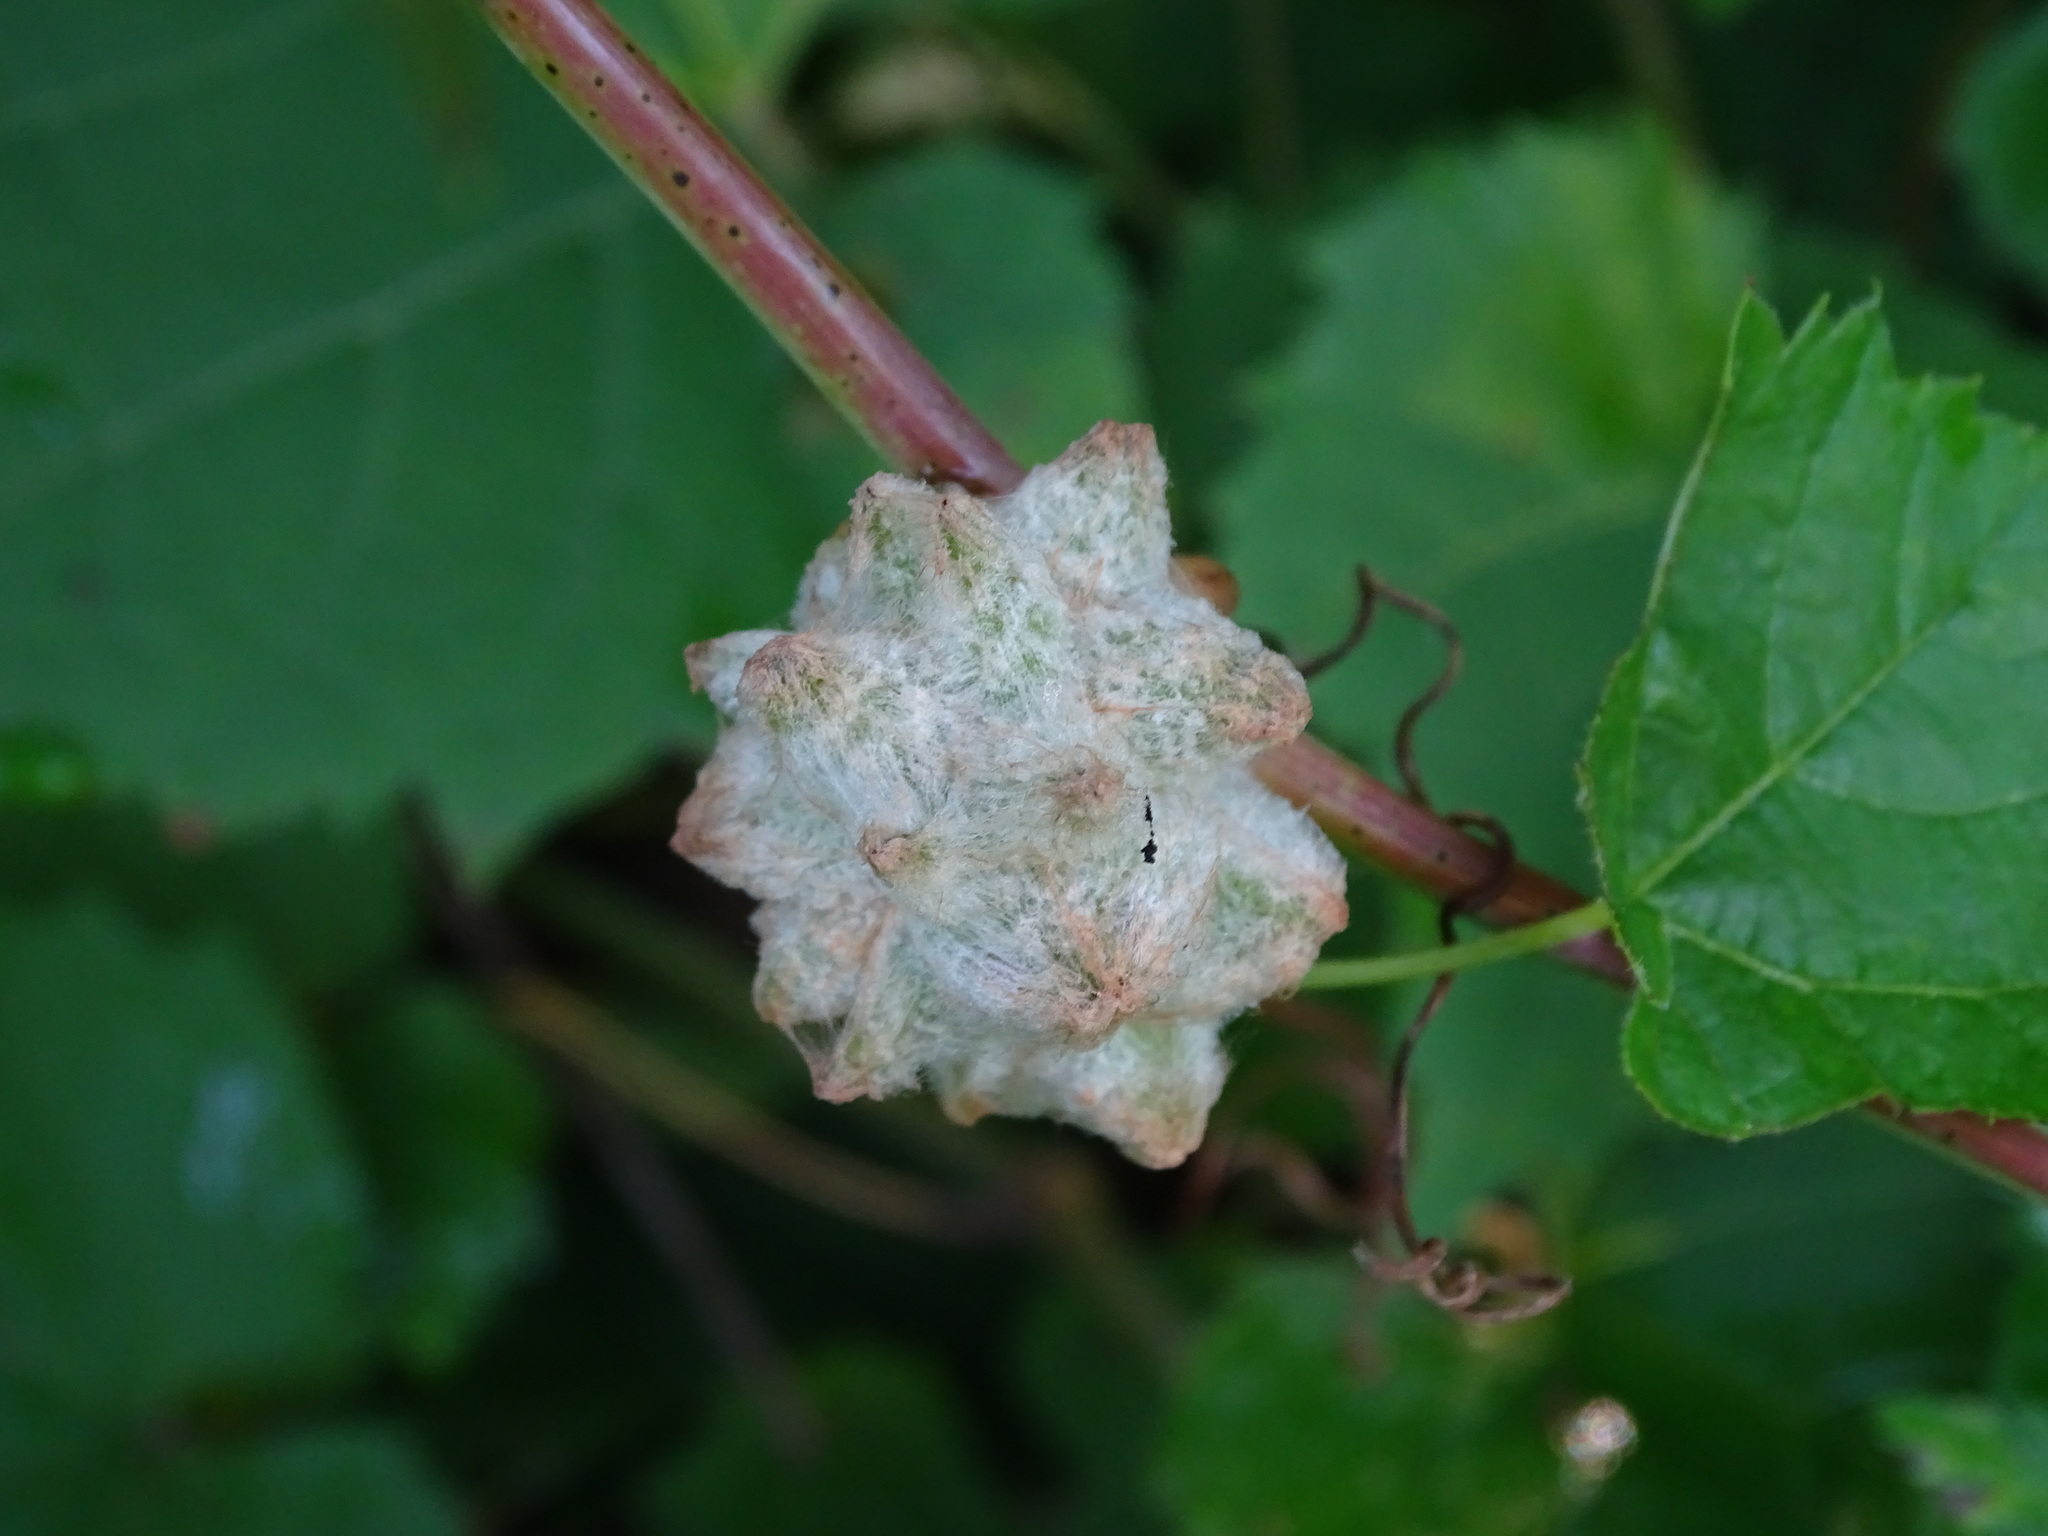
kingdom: Animalia
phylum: Arthropoda
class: Insecta
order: Diptera
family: Cecidomyiidae
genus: Ampelomyia
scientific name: Ampelomyia vitiscoryloides
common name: Grape filbert gall
